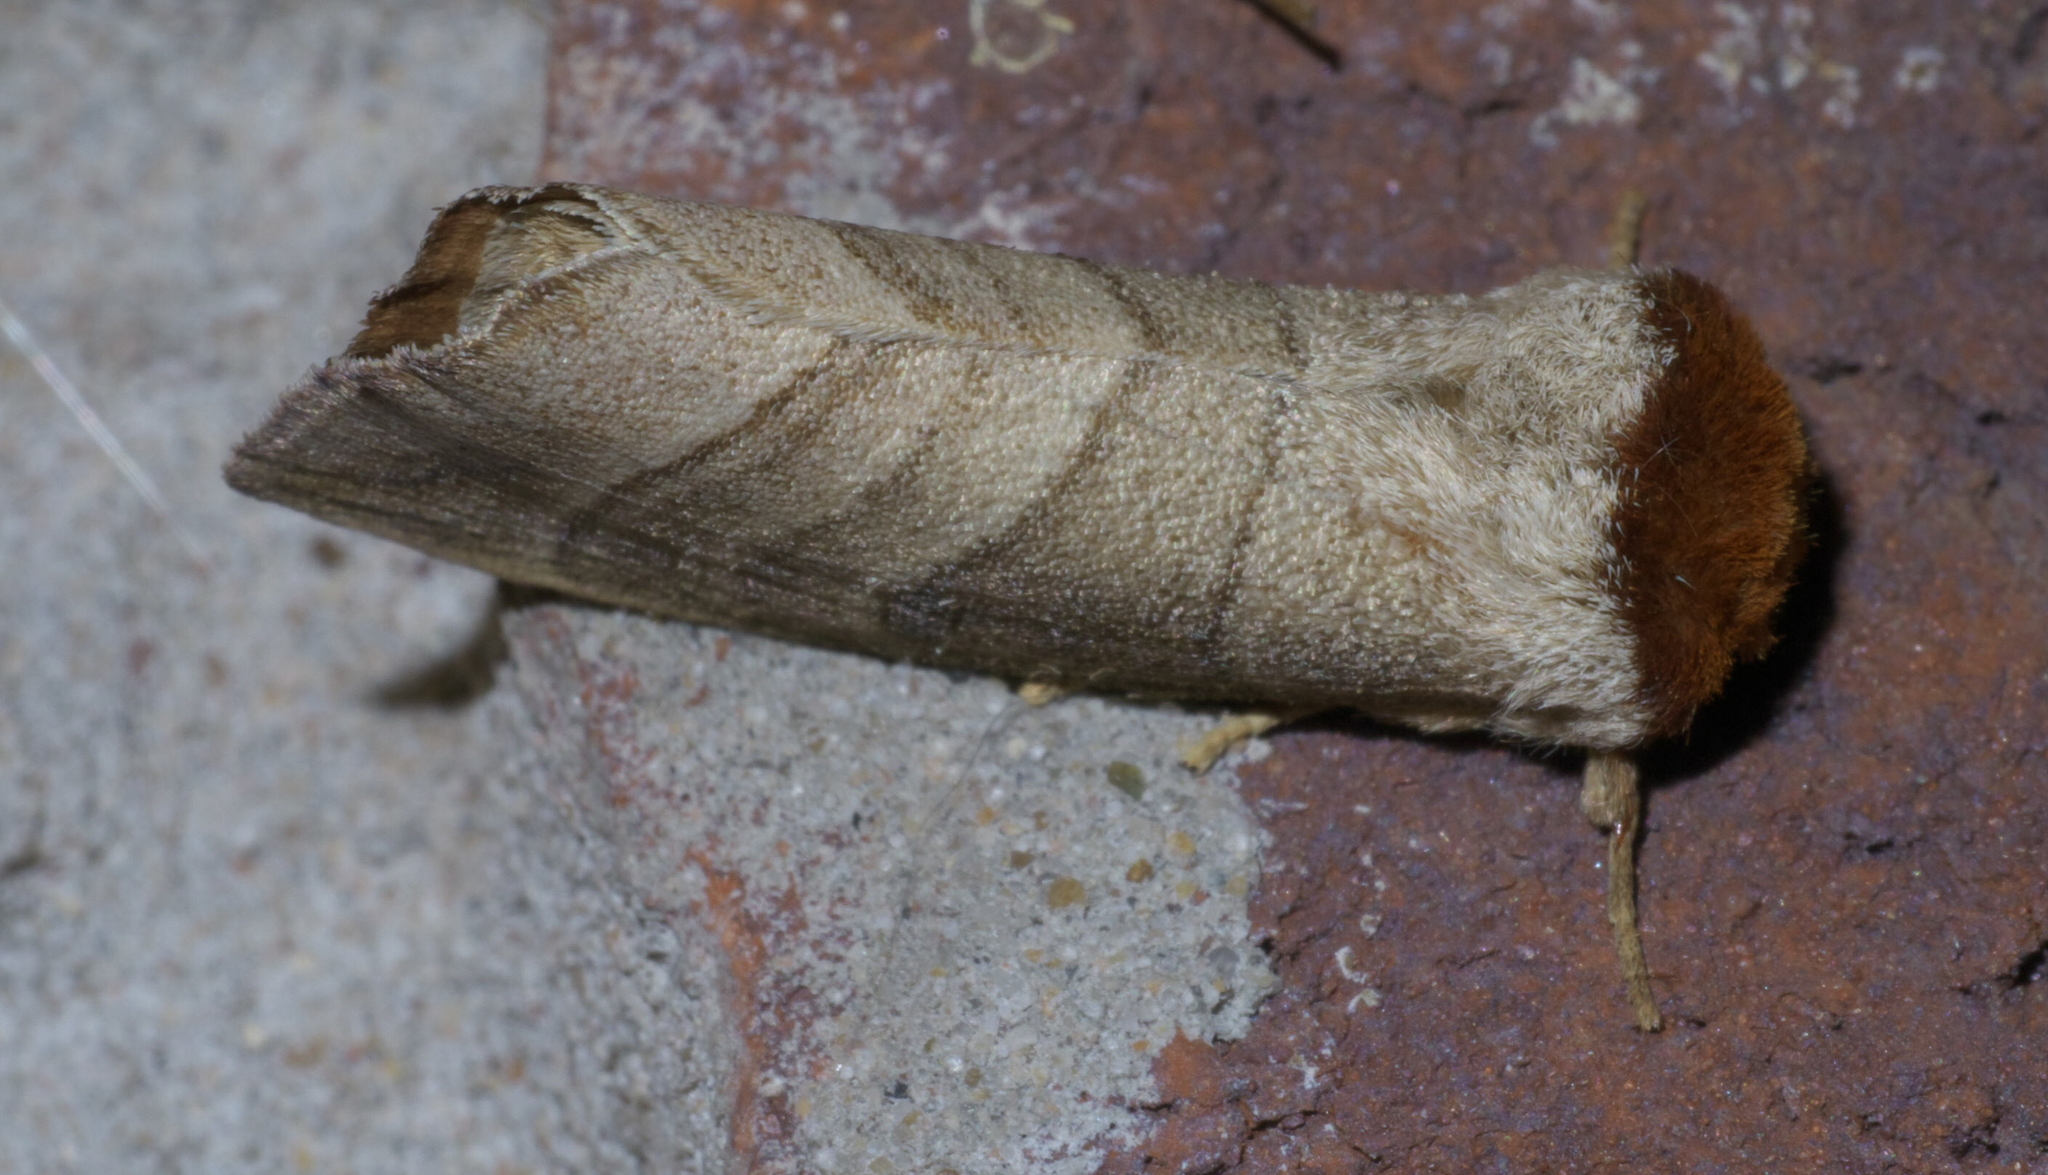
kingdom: Animalia
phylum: Arthropoda
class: Insecta
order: Lepidoptera
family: Notodontidae
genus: Datana
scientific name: Datana integerrima
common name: Walnut caterpillar
